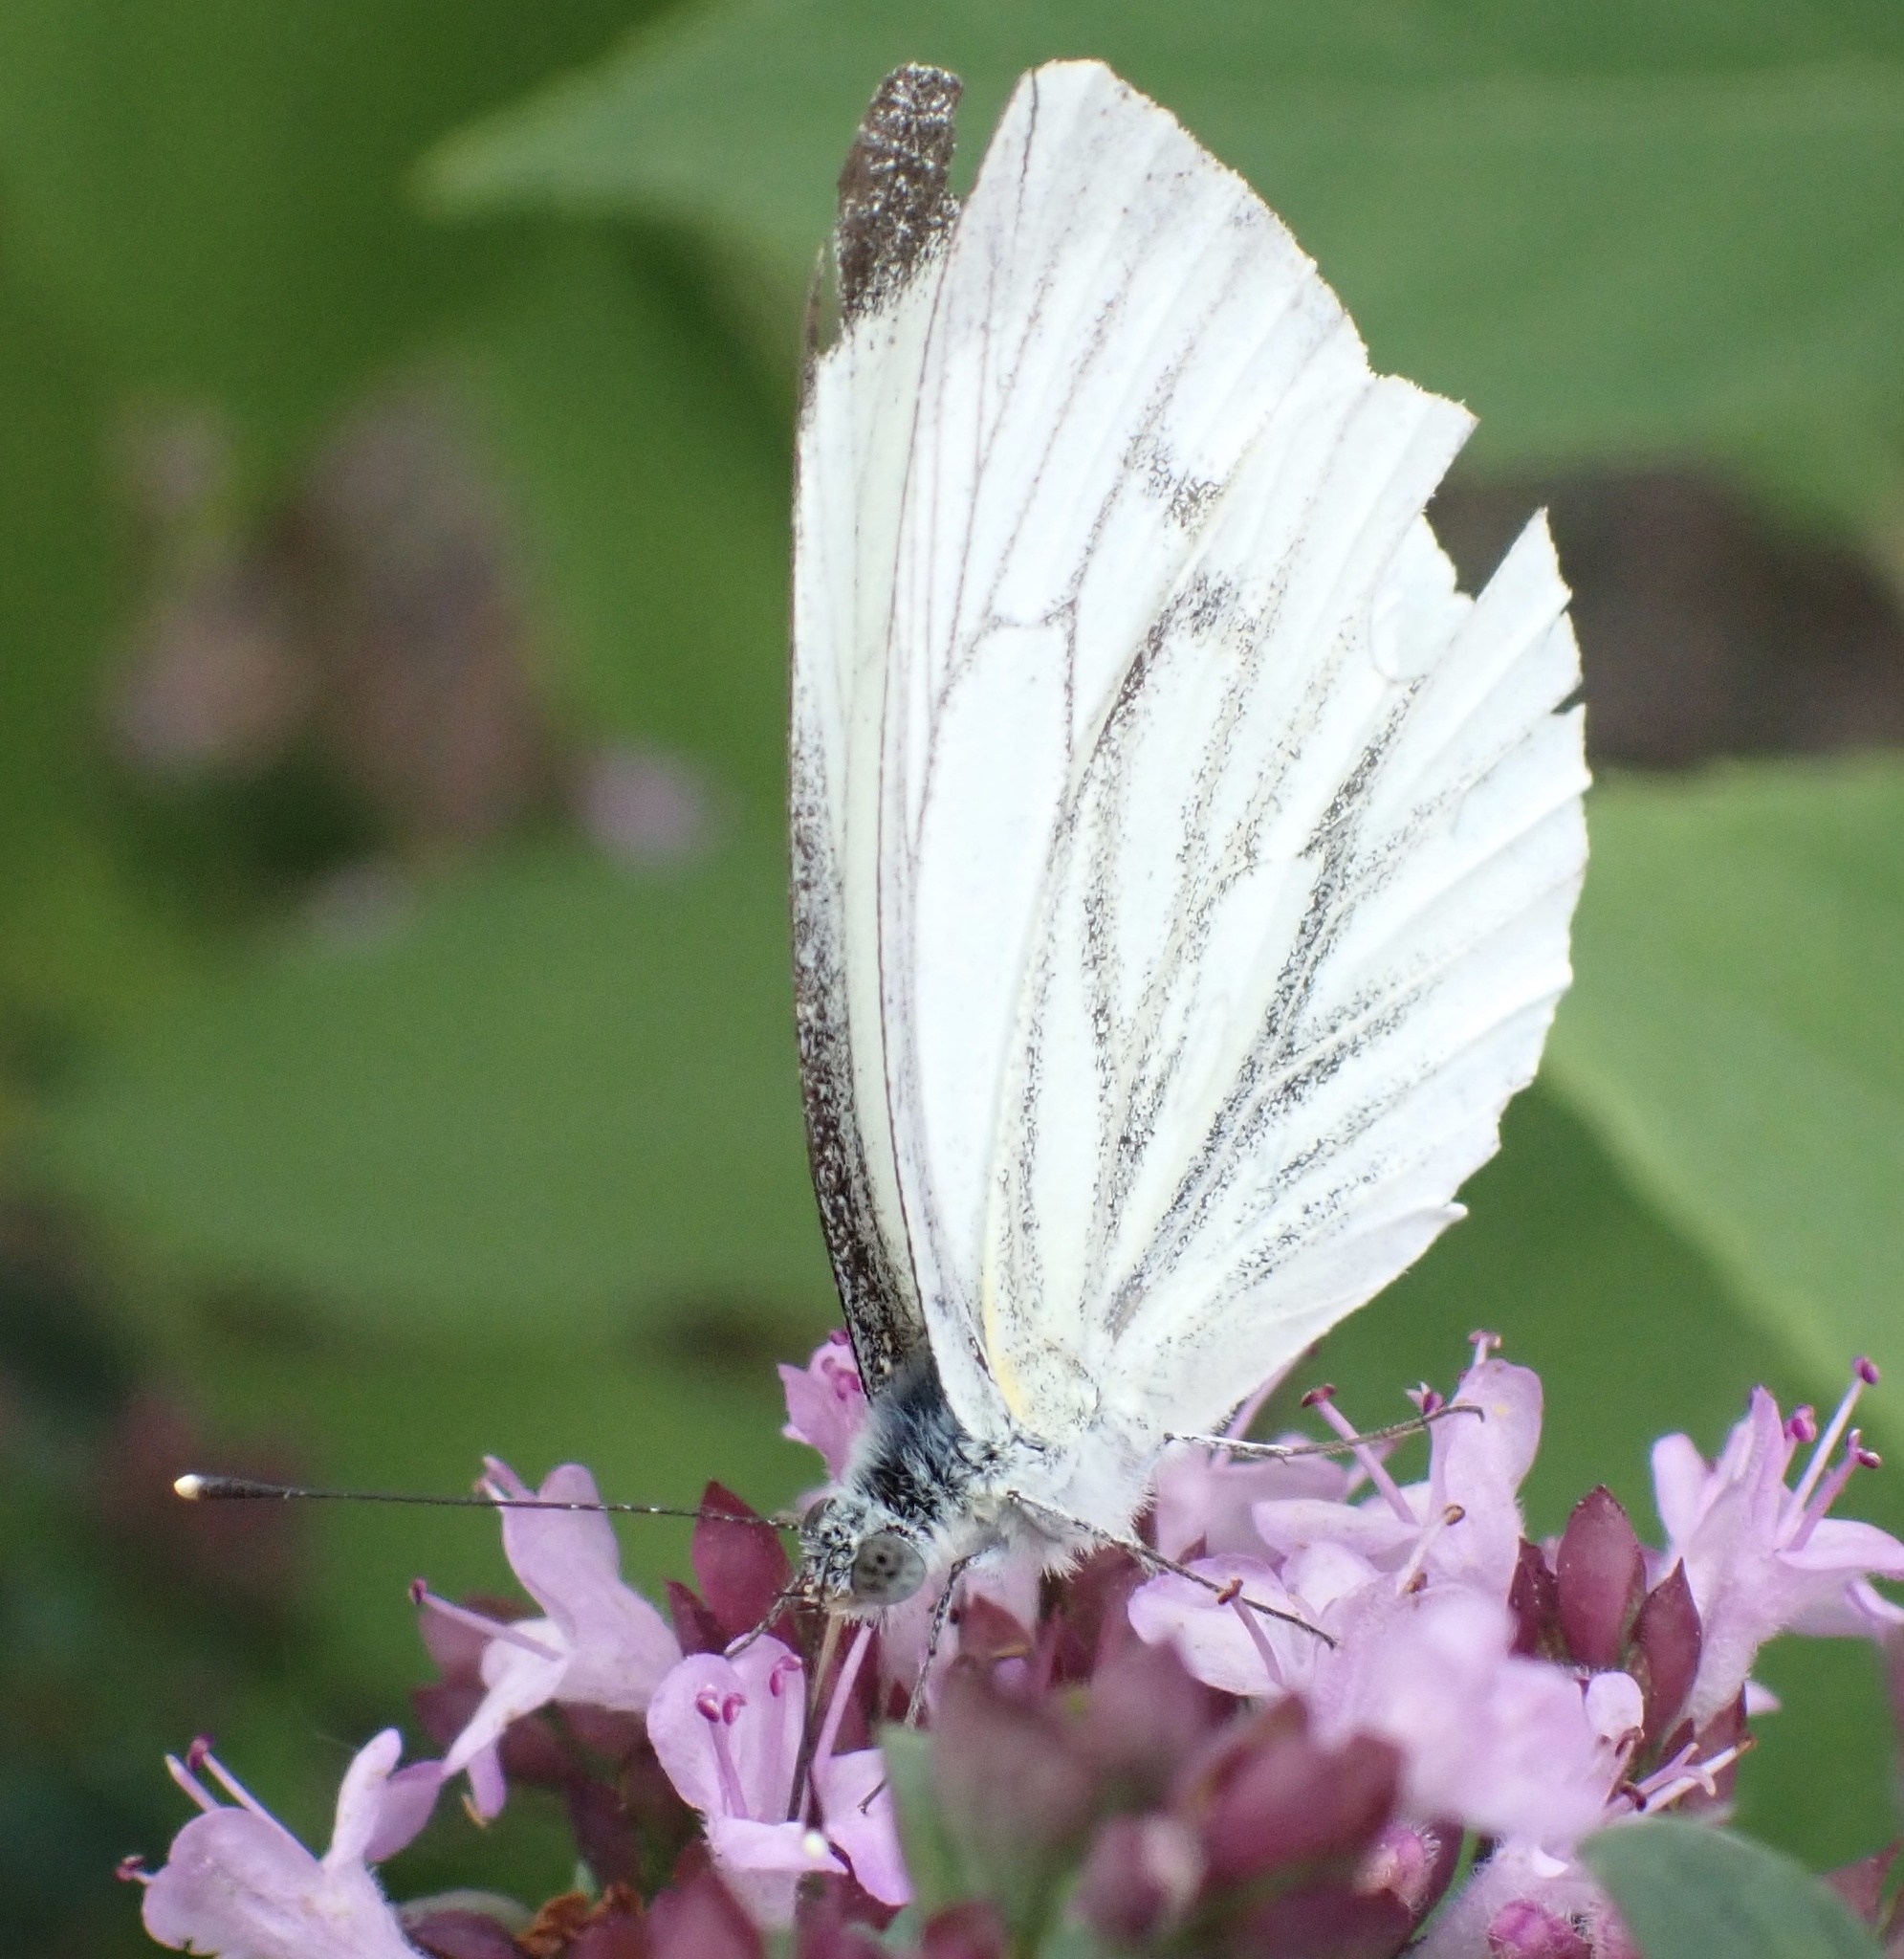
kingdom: Animalia
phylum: Arthropoda
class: Insecta
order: Lepidoptera
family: Pieridae
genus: Pieris
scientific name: Pieris napi
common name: Green-veined white
